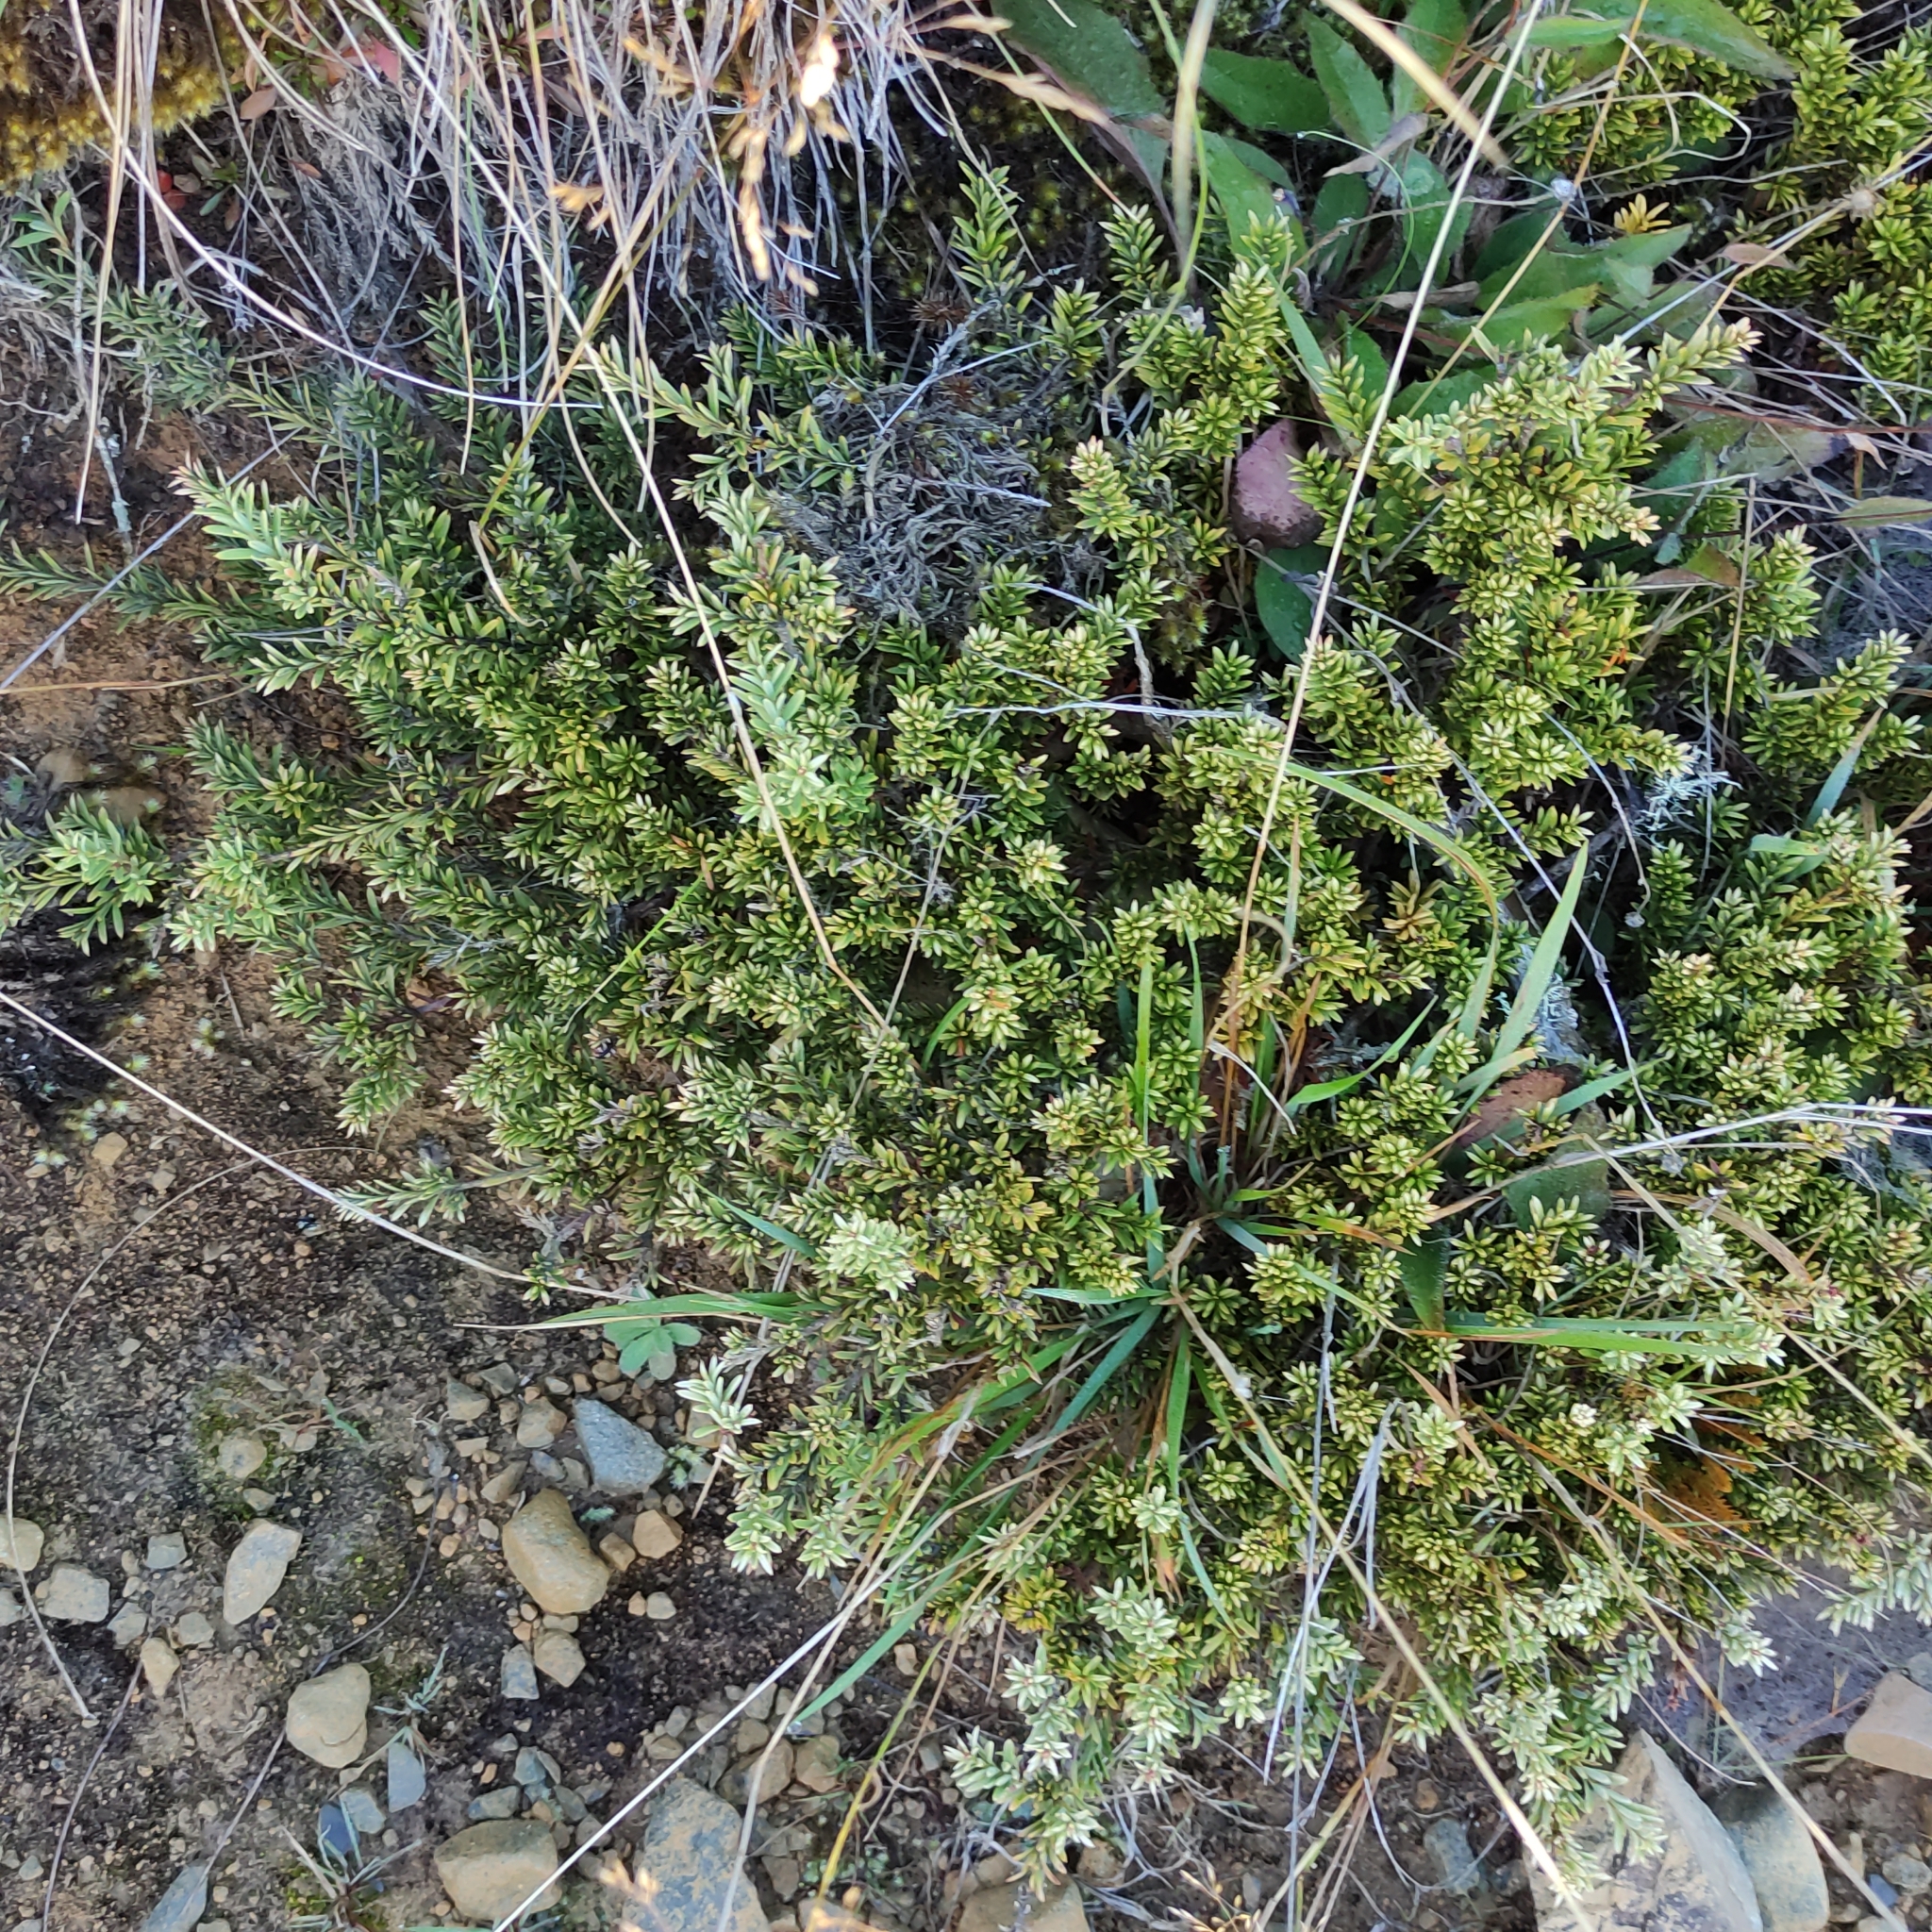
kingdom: Plantae
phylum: Tracheophyta
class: Pinopsida
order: Pinales
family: Podocarpaceae
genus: Podocarpus
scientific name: Podocarpus nivalis
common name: Alpine totara
